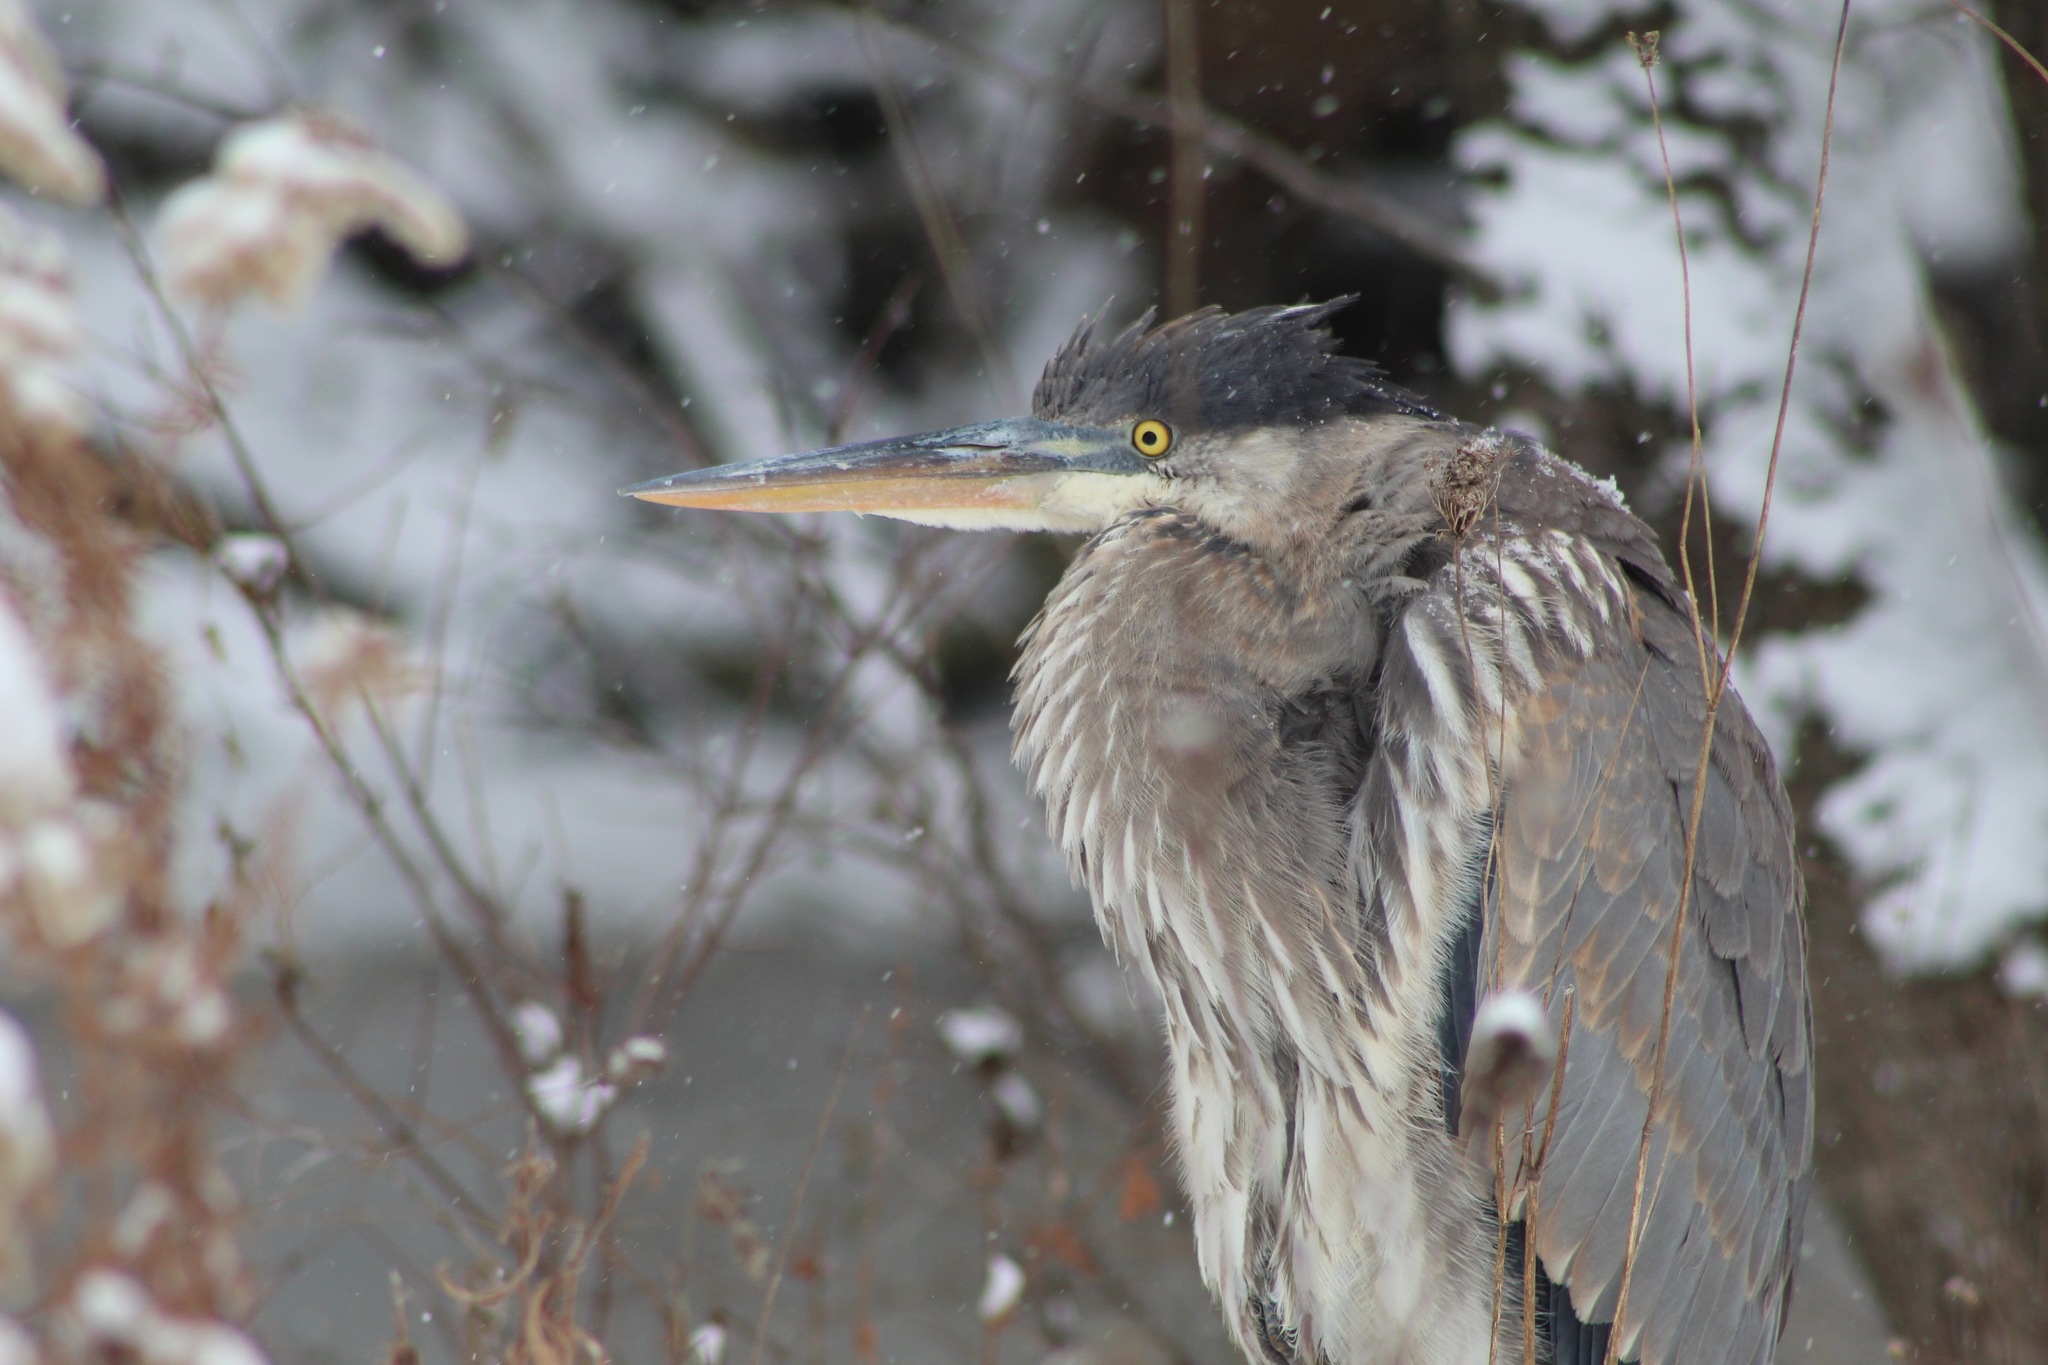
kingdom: Animalia
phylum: Chordata
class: Aves
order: Pelecaniformes
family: Ardeidae
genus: Ardea
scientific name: Ardea herodias
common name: Great blue heron
